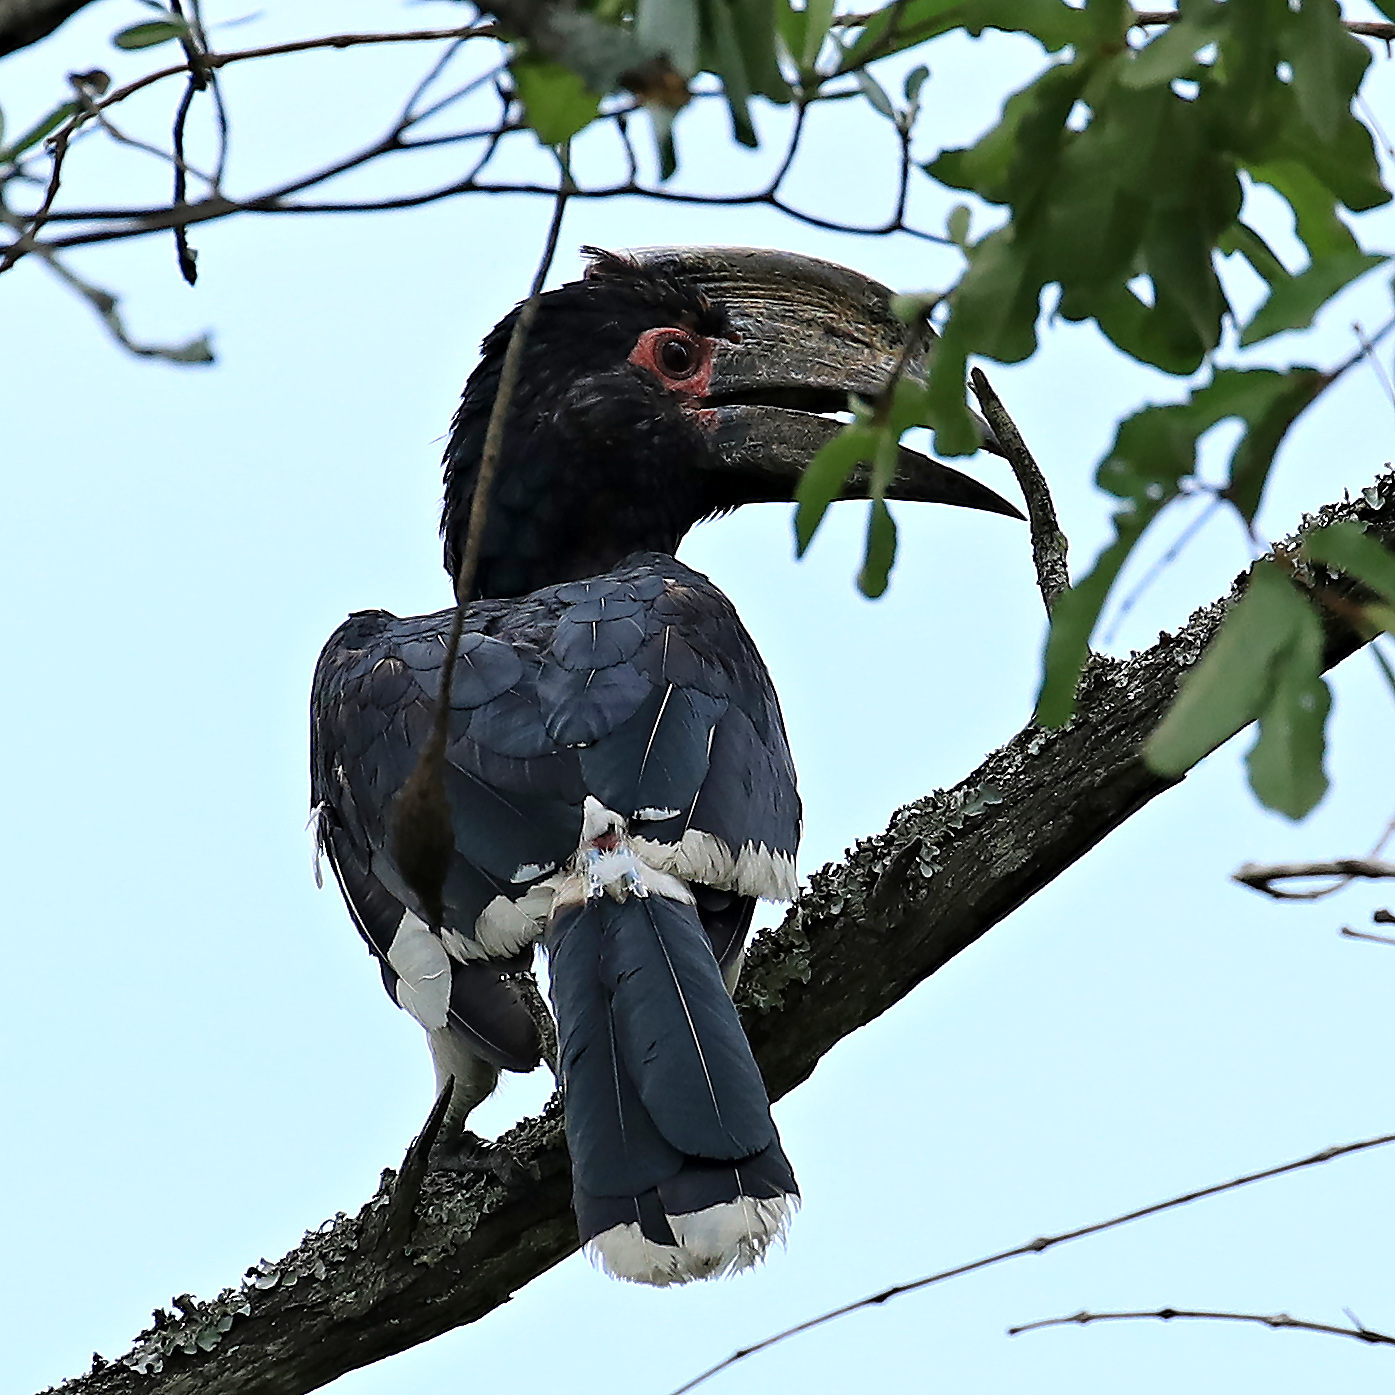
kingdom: Animalia
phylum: Chordata
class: Aves
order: Bucerotiformes
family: Bucerotidae
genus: Bycanistes
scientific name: Bycanistes bucinator
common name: Trumpeter hornbill
